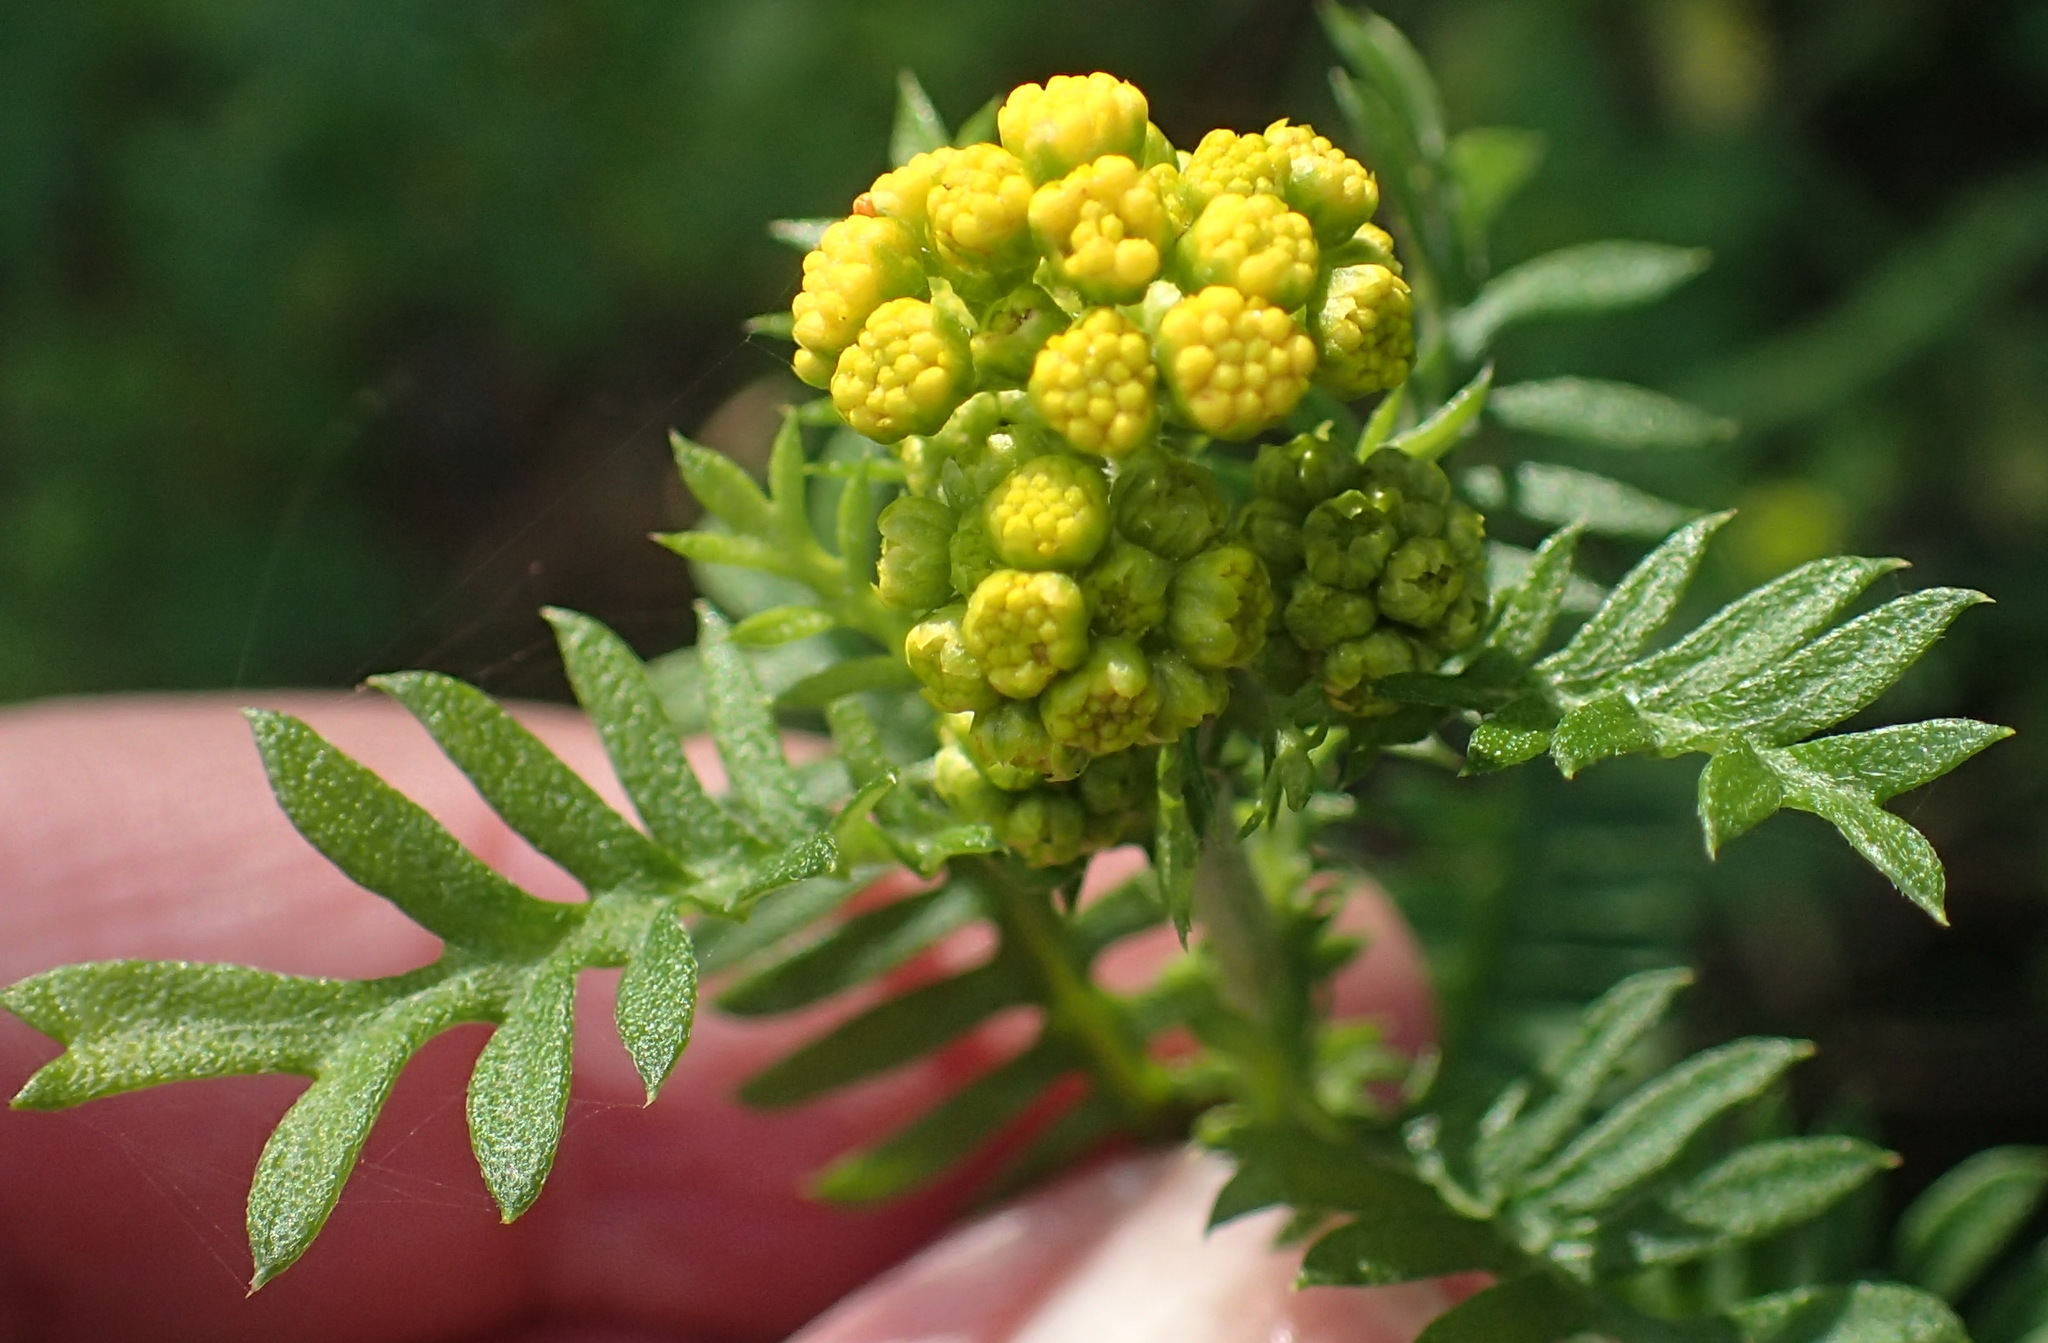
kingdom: Plantae
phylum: Tracheophyta
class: Magnoliopsida
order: Asterales
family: Asteraceae
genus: Hippia
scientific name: Hippia frutescens
